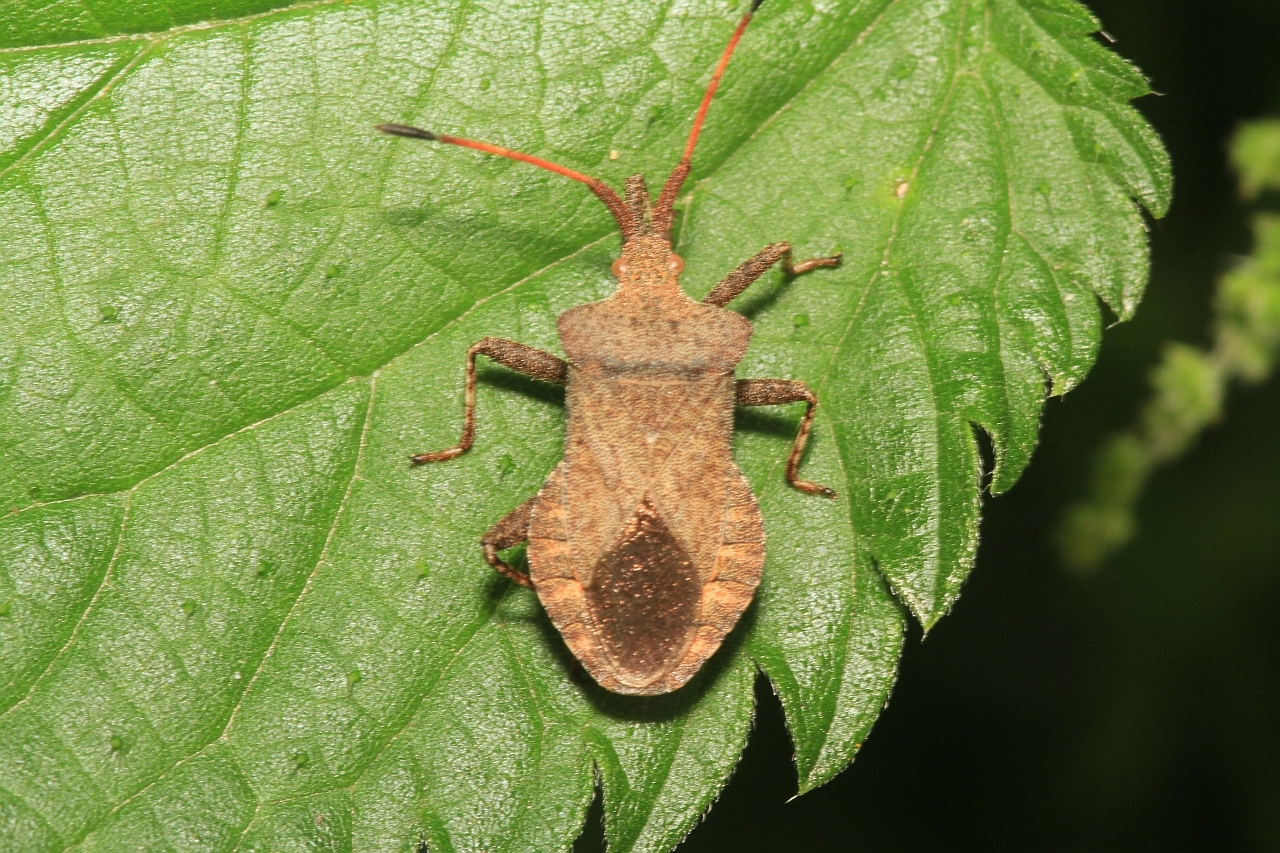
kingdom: Animalia
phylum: Arthropoda
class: Insecta
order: Hemiptera
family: Coreidae
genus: Coreus
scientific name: Coreus marginatus
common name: Dock bug
